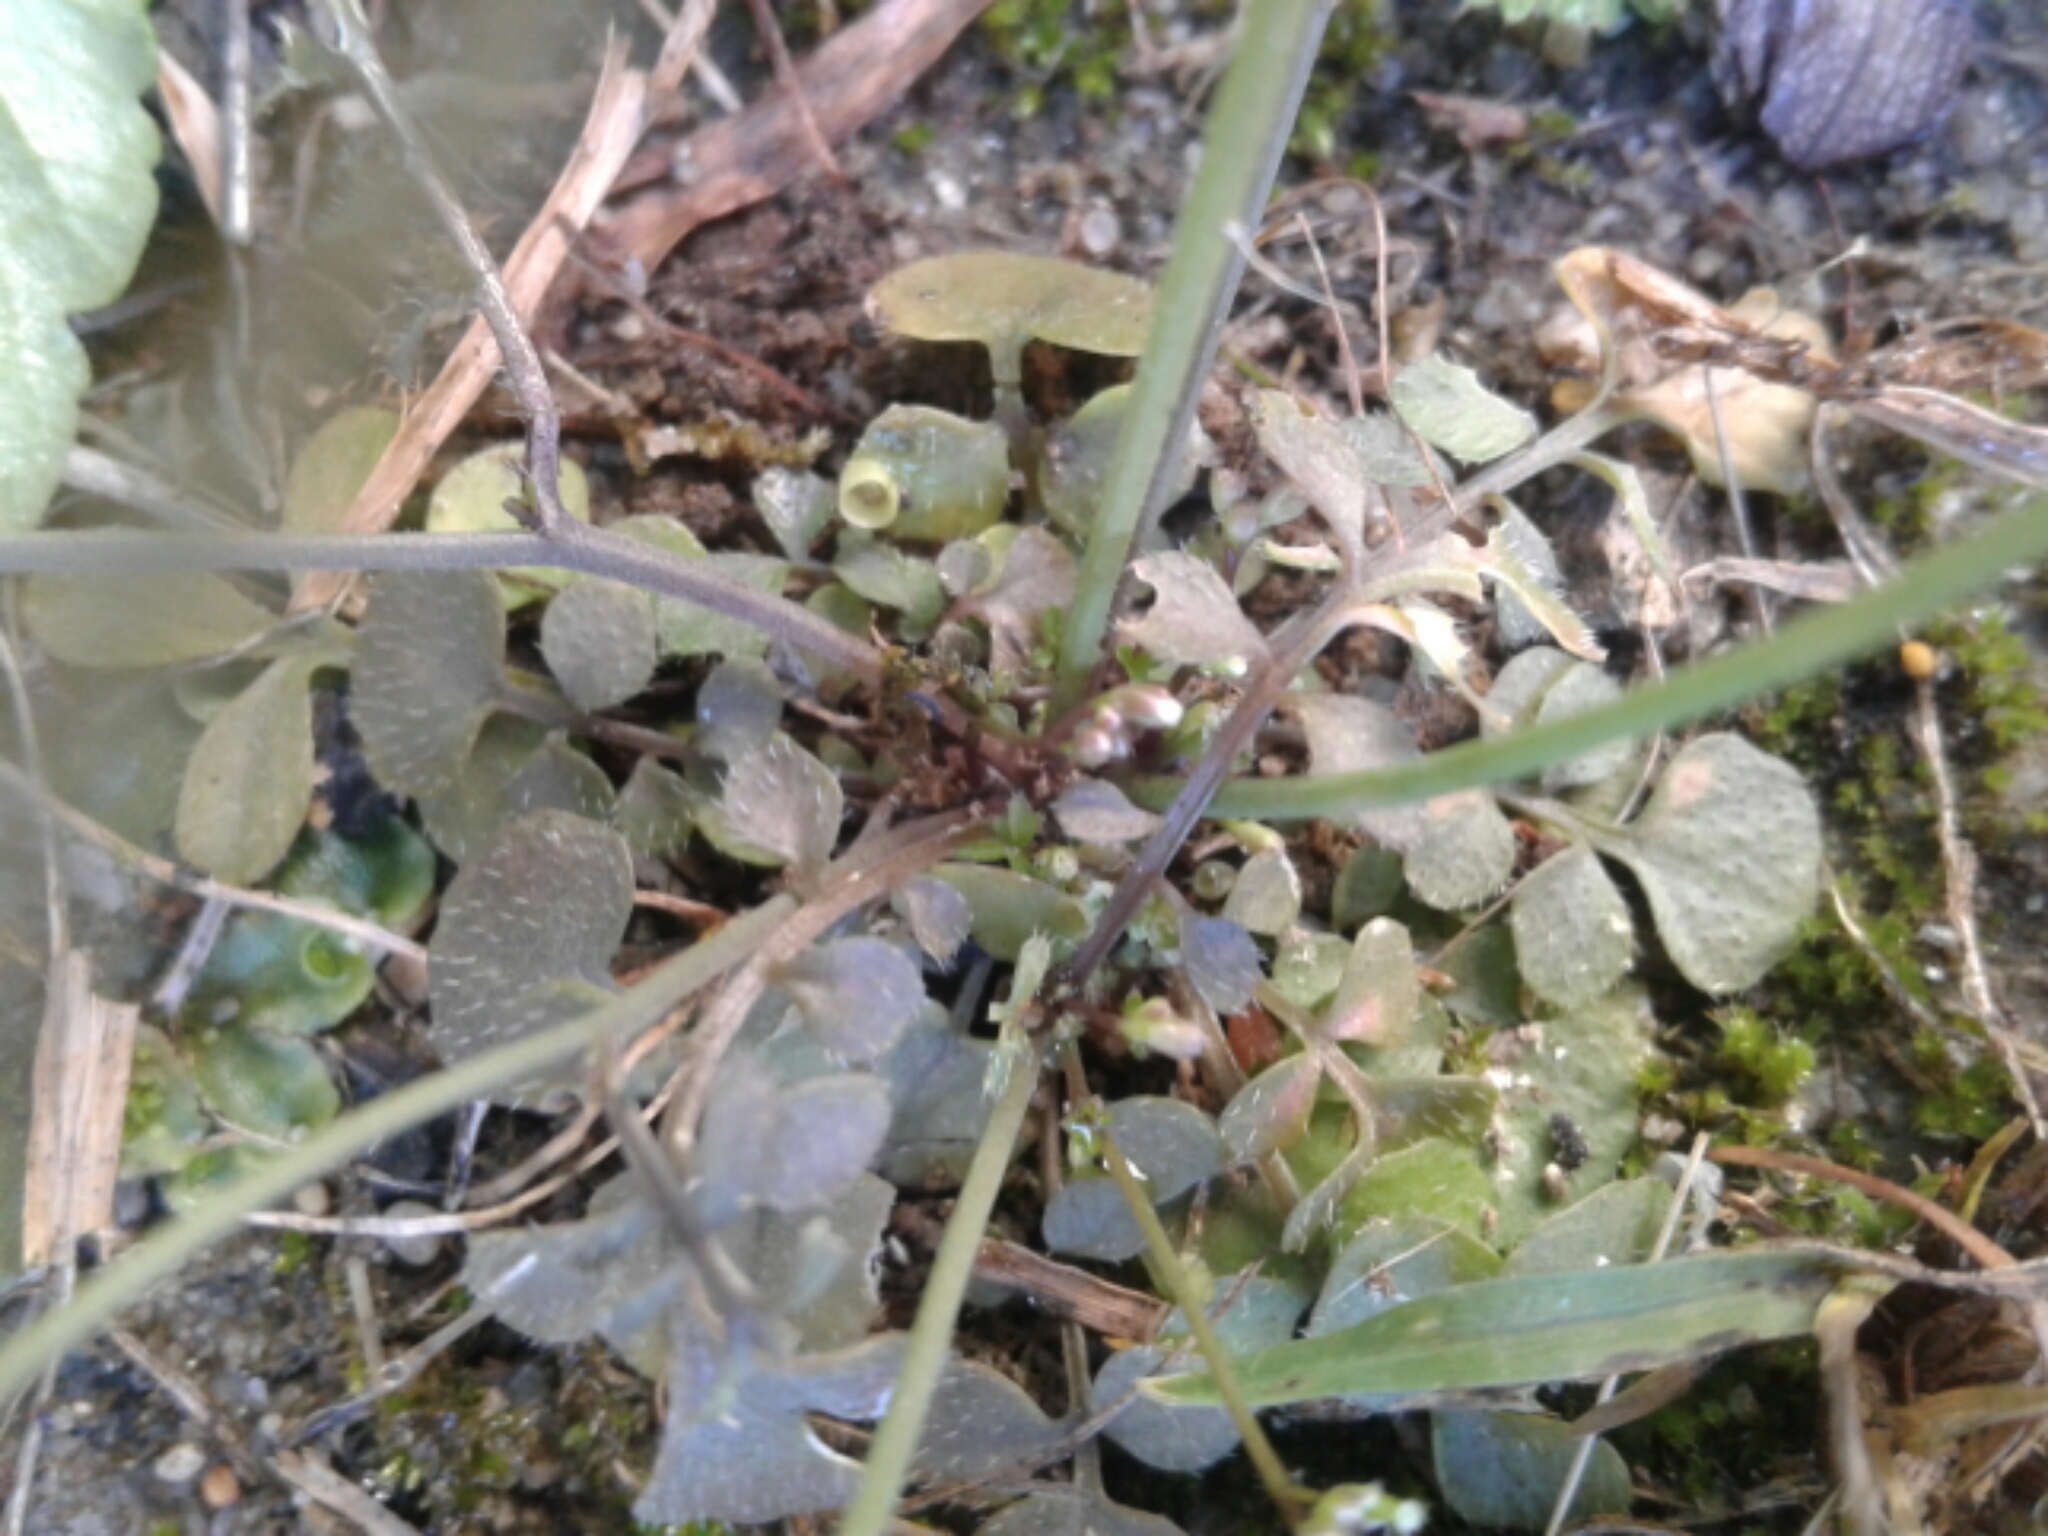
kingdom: Plantae
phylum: Tracheophyta
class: Magnoliopsida
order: Brassicales
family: Brassicaceae
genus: Cardamine
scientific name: Cardamine hirsuta
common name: Hairy bittercress
